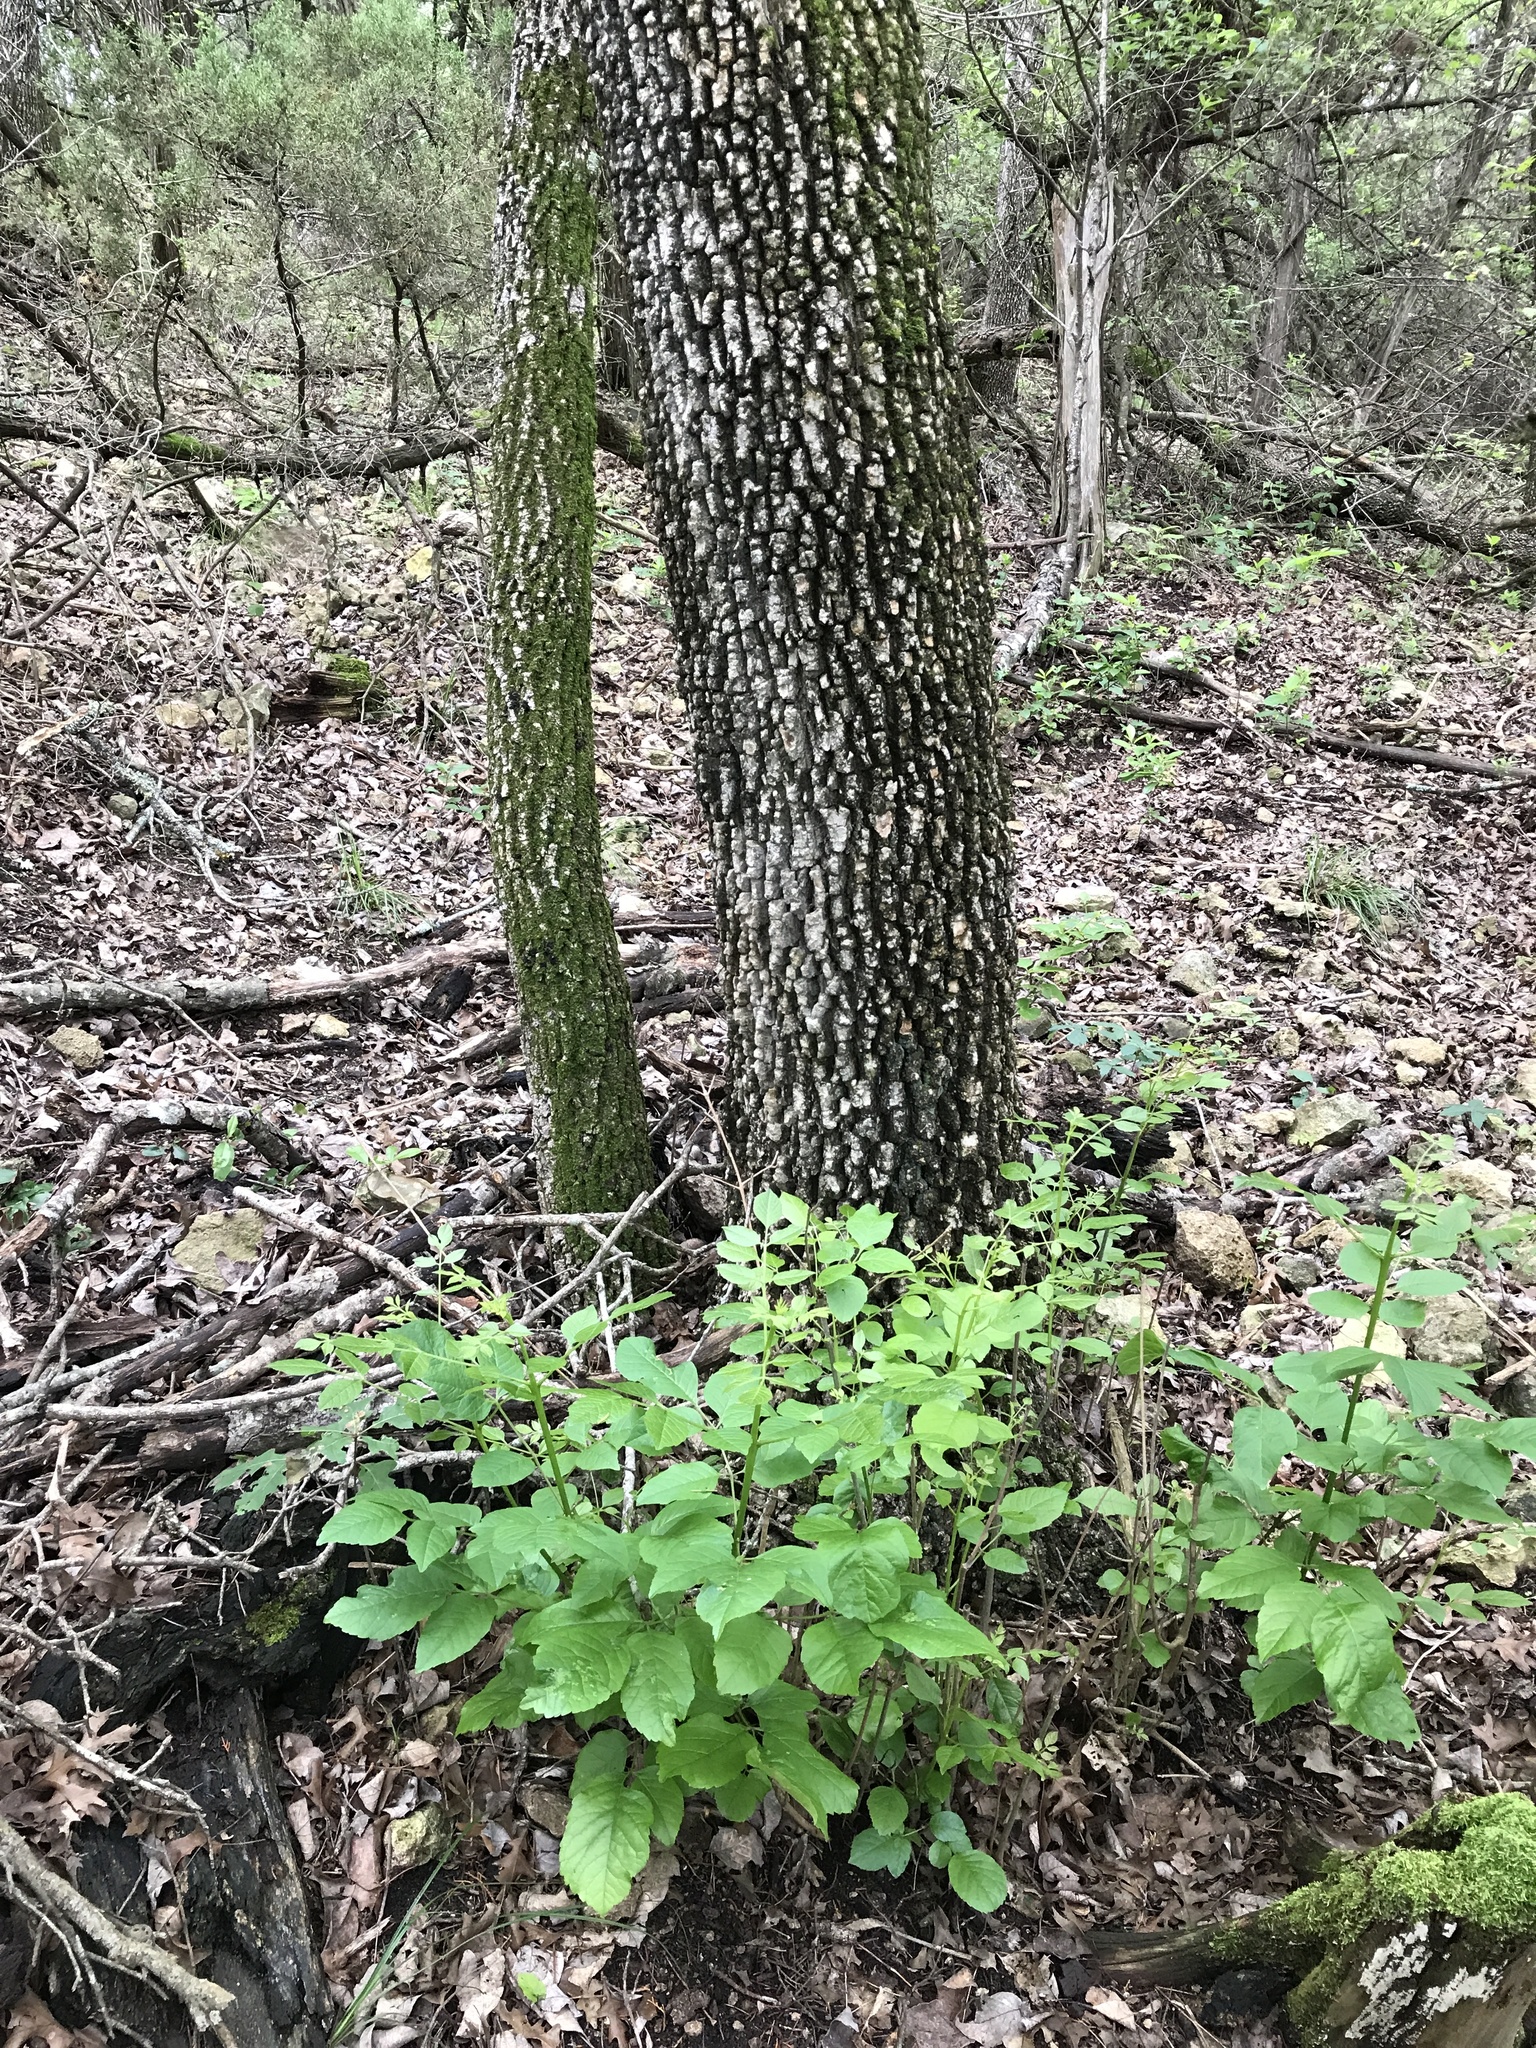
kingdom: Plantae
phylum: Tracheophyta
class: Magnoliopsida
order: Lamiales
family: Oleaceae
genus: Fraxinus
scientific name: Fraxinus albicans
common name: Texas ash
